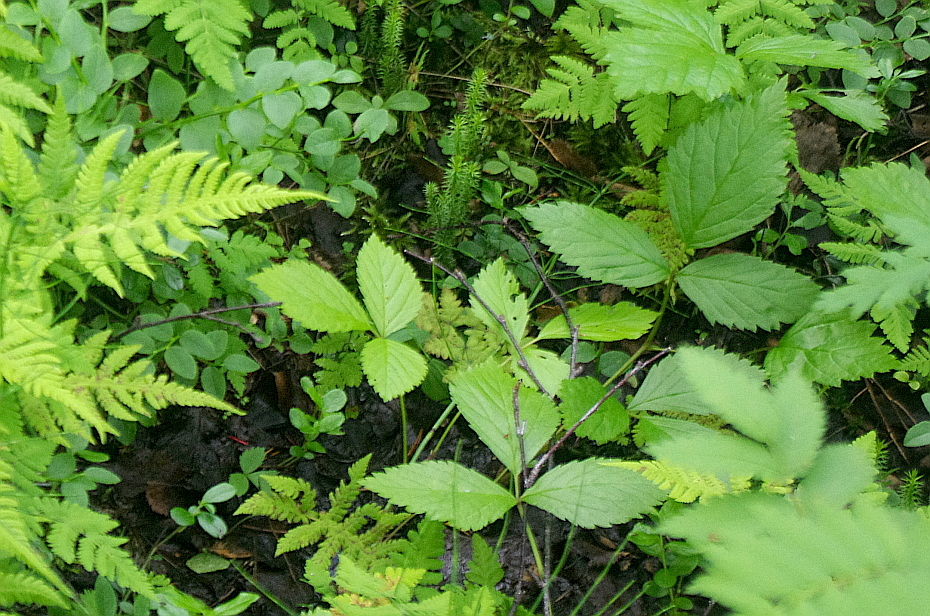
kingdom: Plantae
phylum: Tracheophyta
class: Magnoliopsida
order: Rosales
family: Rosaceae
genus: Rubus
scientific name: Rubus saxatilis
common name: Stone bramble
